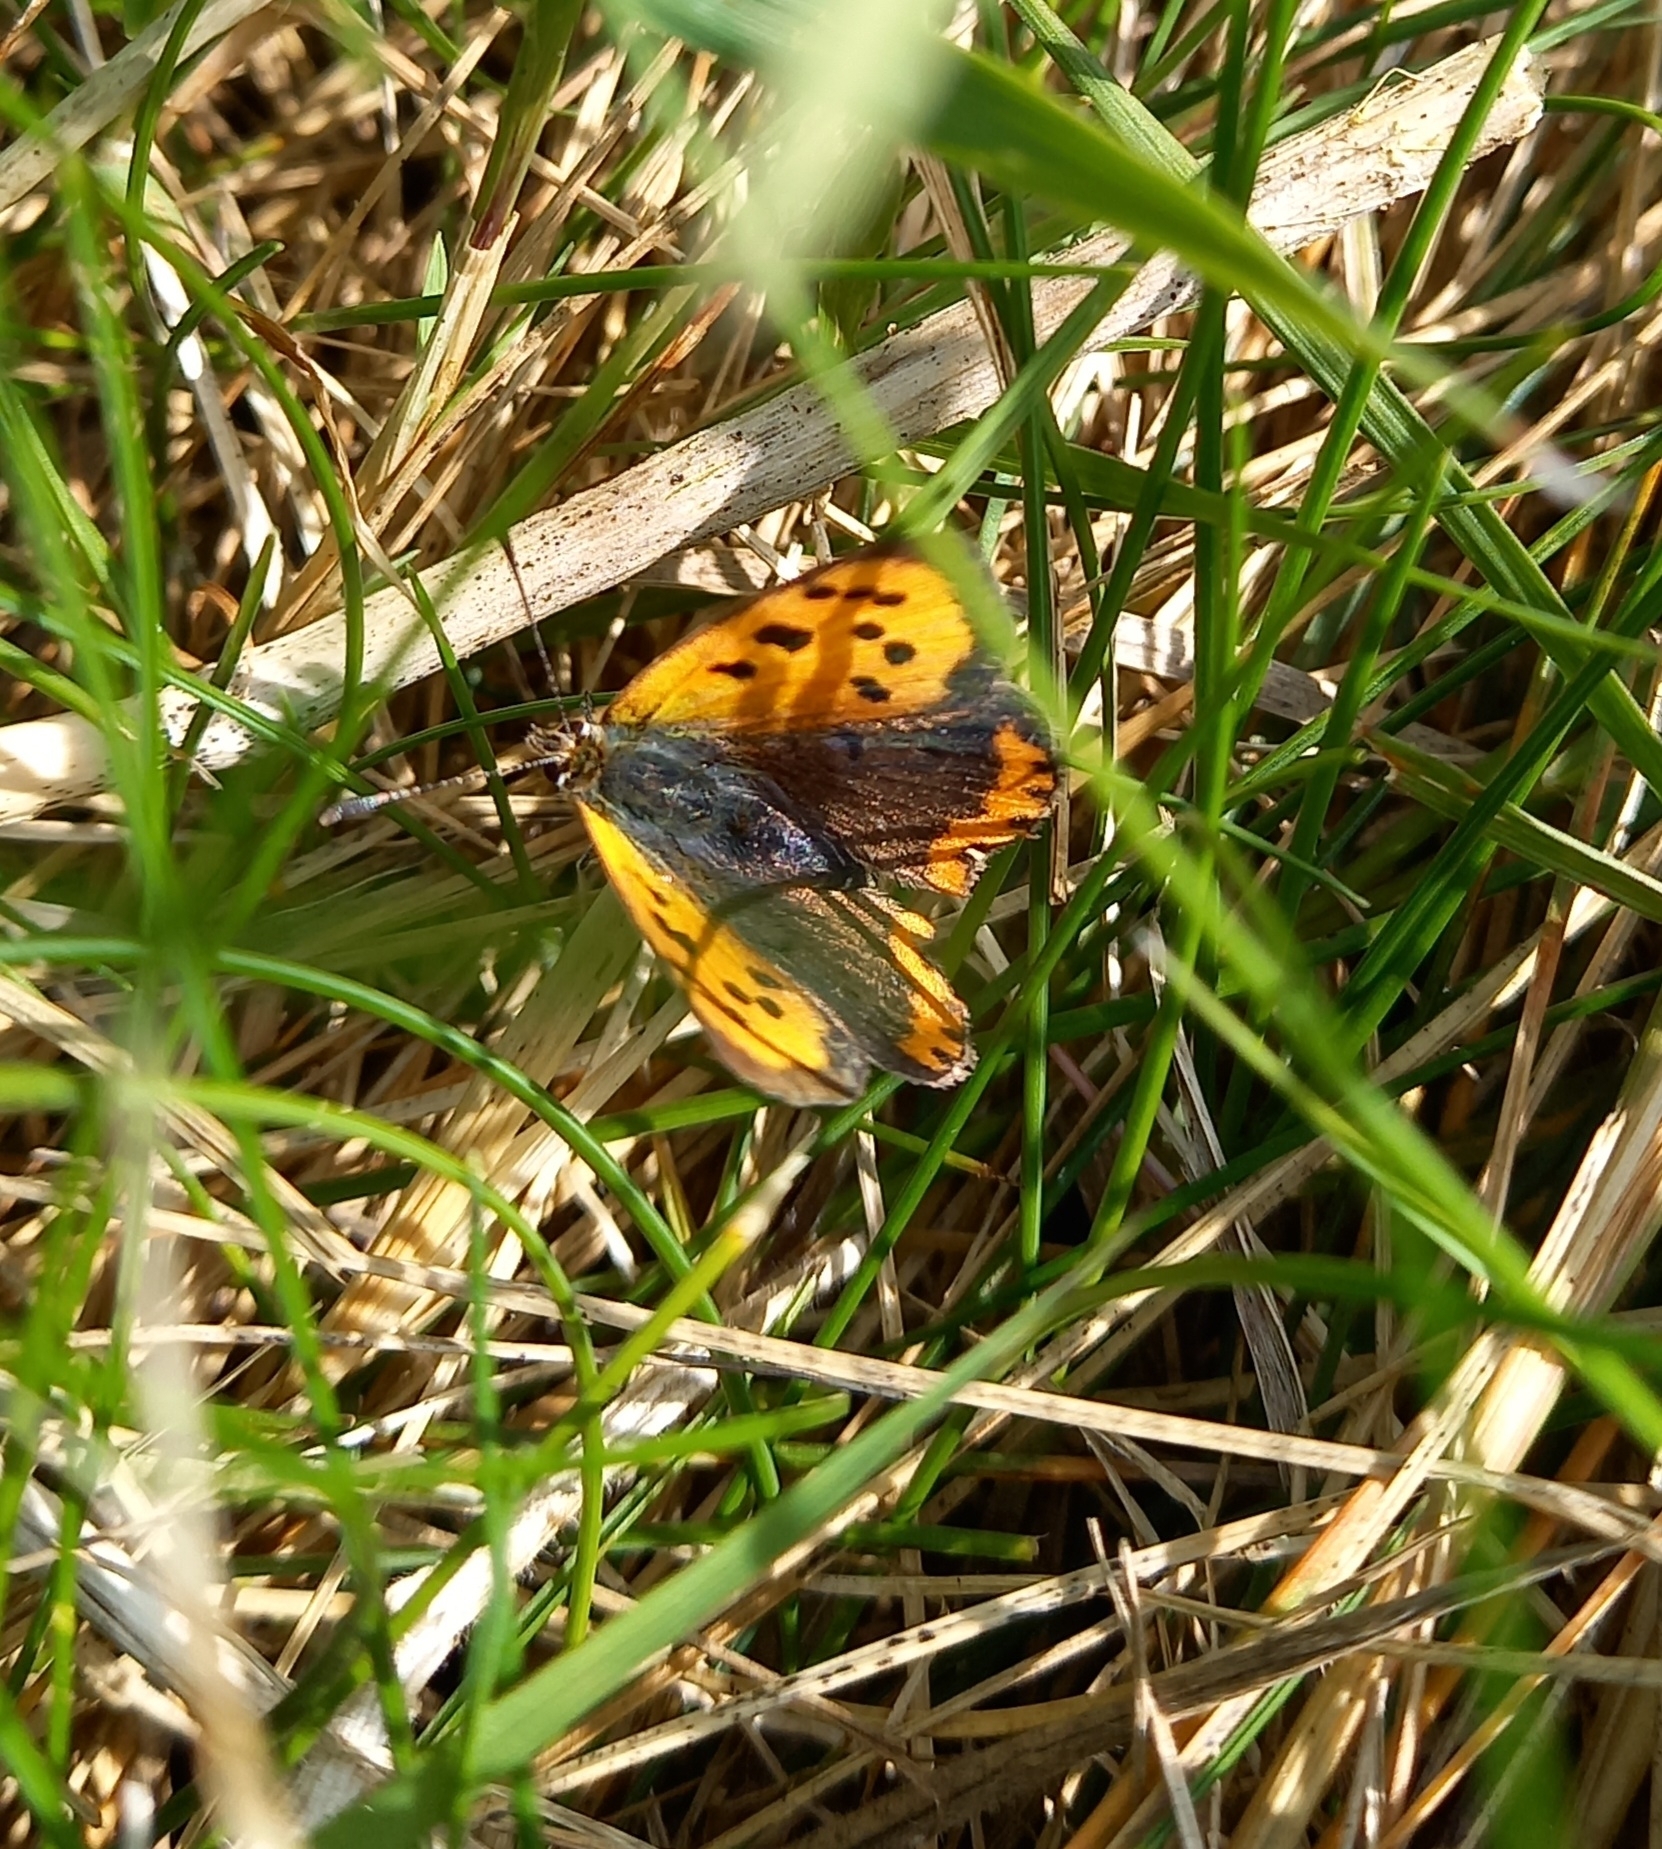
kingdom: Animalia
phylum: Arthropoda
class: Insecta
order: Lepidoptera
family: Lycaenidae
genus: Lycaena
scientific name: Lycaena phlaeas
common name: Small copper
